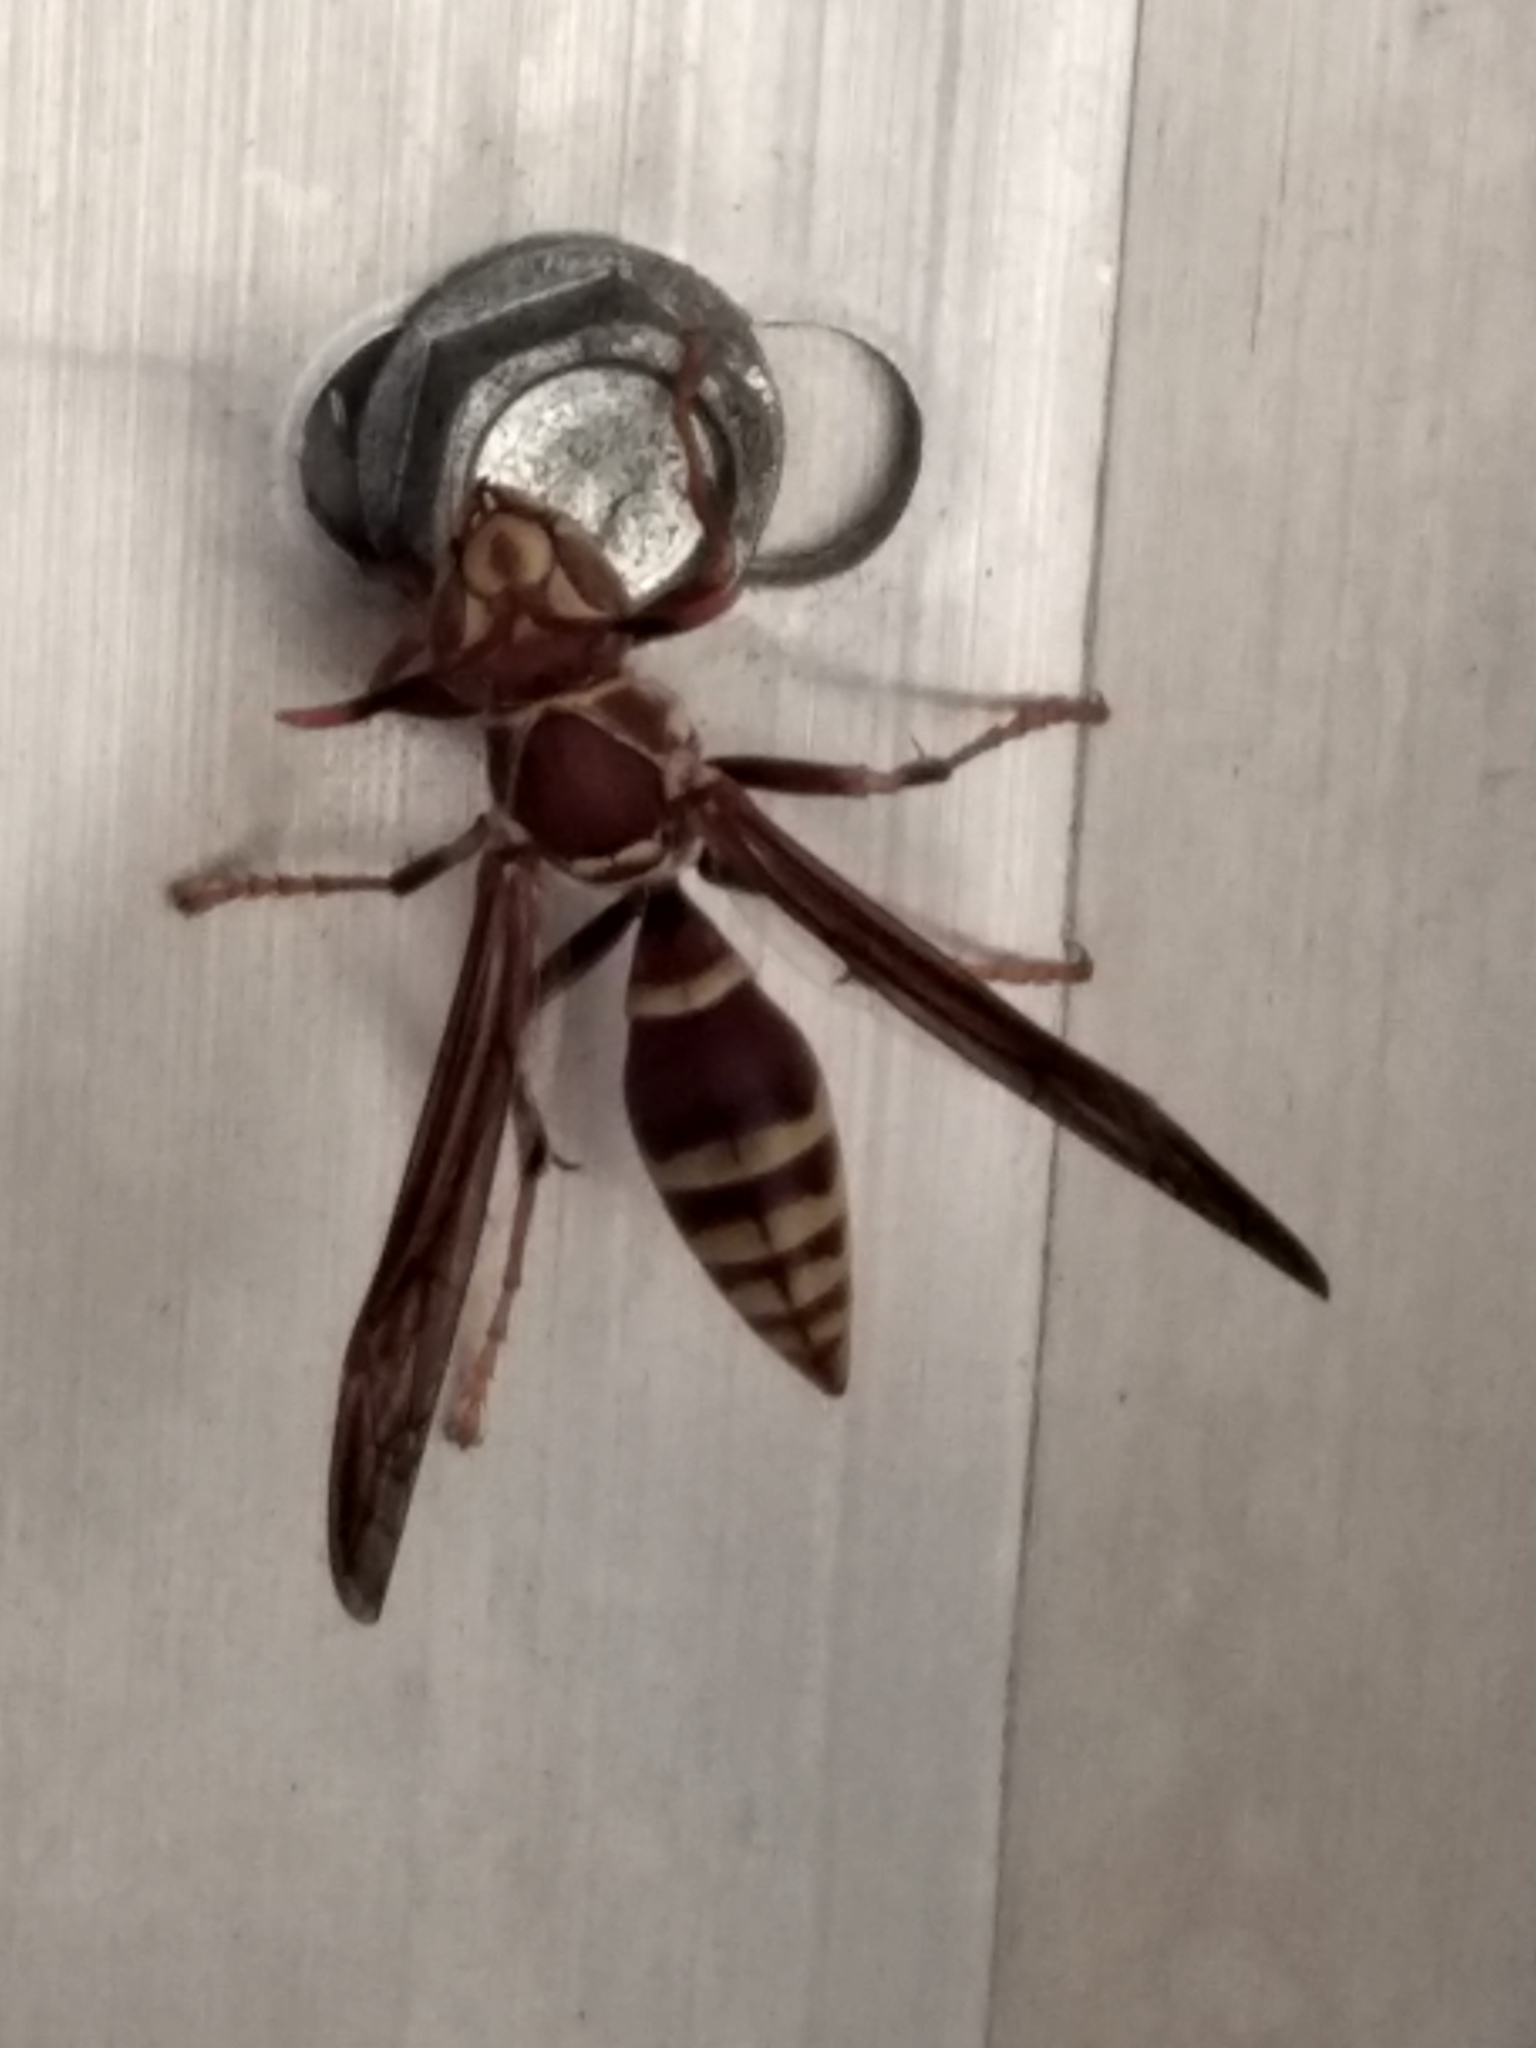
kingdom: Animalia
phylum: Arthropoda
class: Insecta
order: Hymenoptera
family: Eumenidae
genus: Polistes
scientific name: Polistes exclamans
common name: Paper wasp
